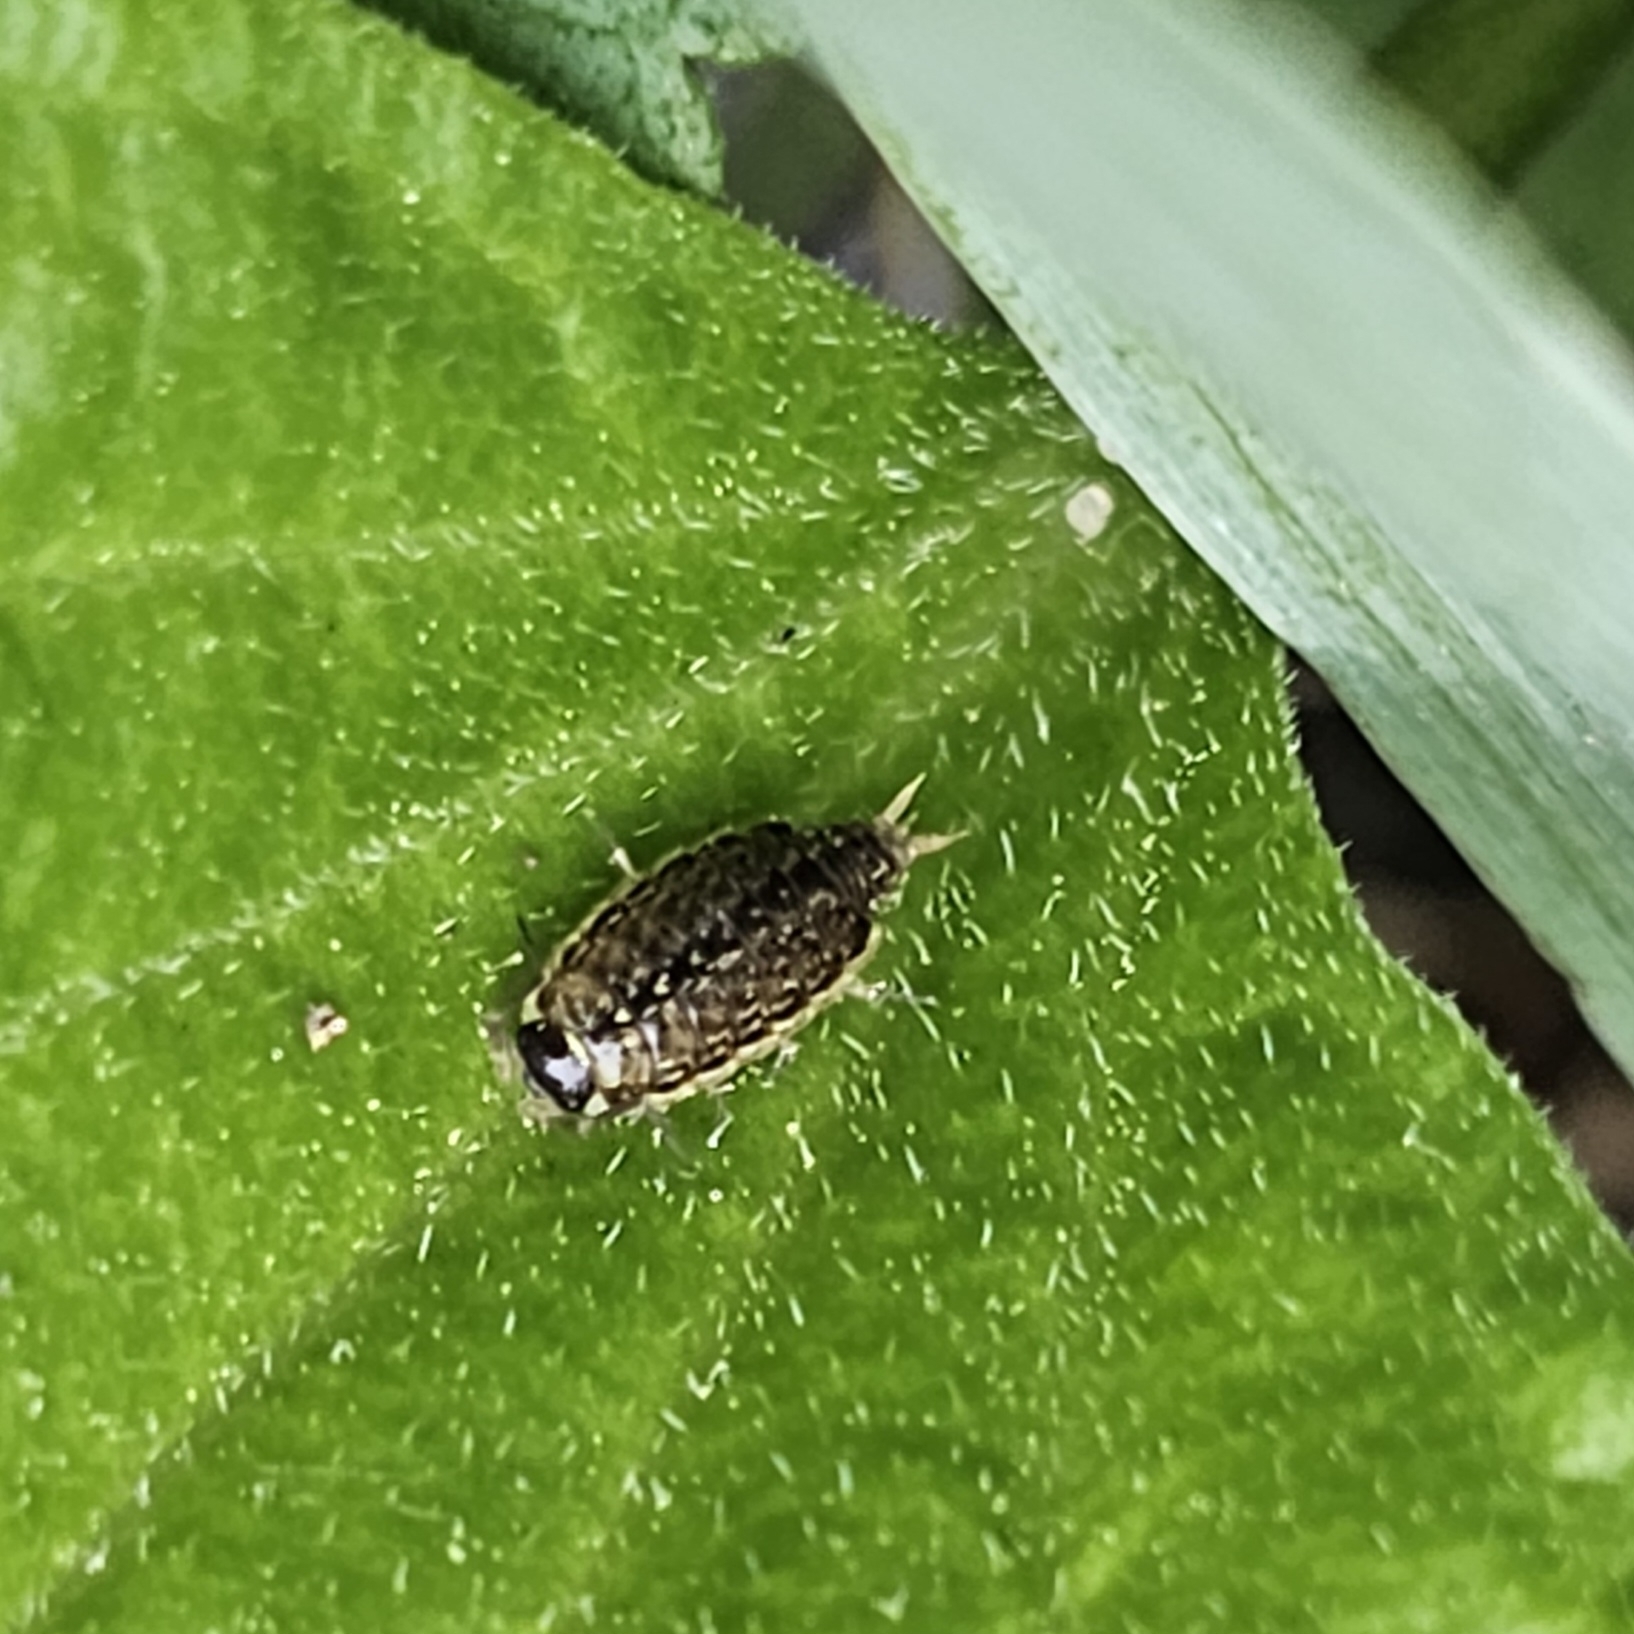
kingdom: Animalia
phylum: Arthropoda
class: Malacostraca
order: Isopoda
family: Philosciidae
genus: Philoscia
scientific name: Philoscia muscorum
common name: Common striped woodlouse
